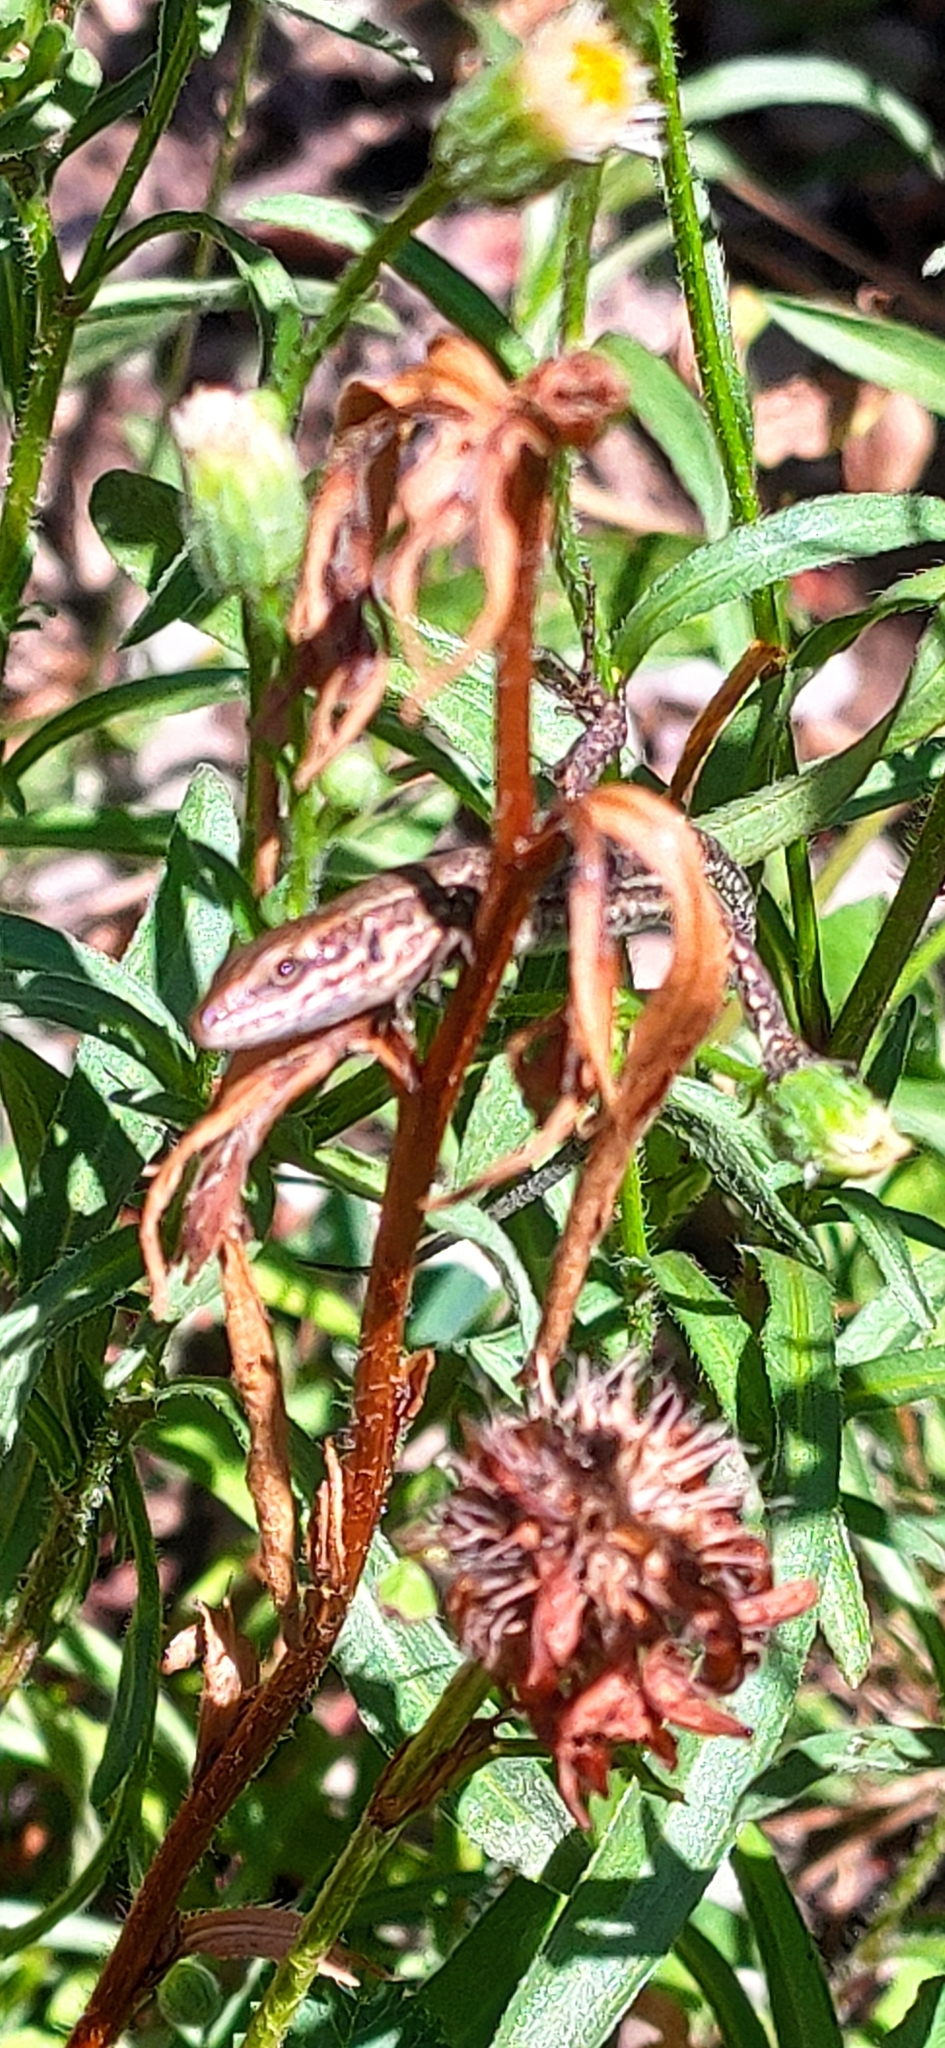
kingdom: Animalia
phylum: Chordata
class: Squamata
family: Lacertidae
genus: Podarcis
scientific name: Podarcis muralis
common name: Common wall lizard
